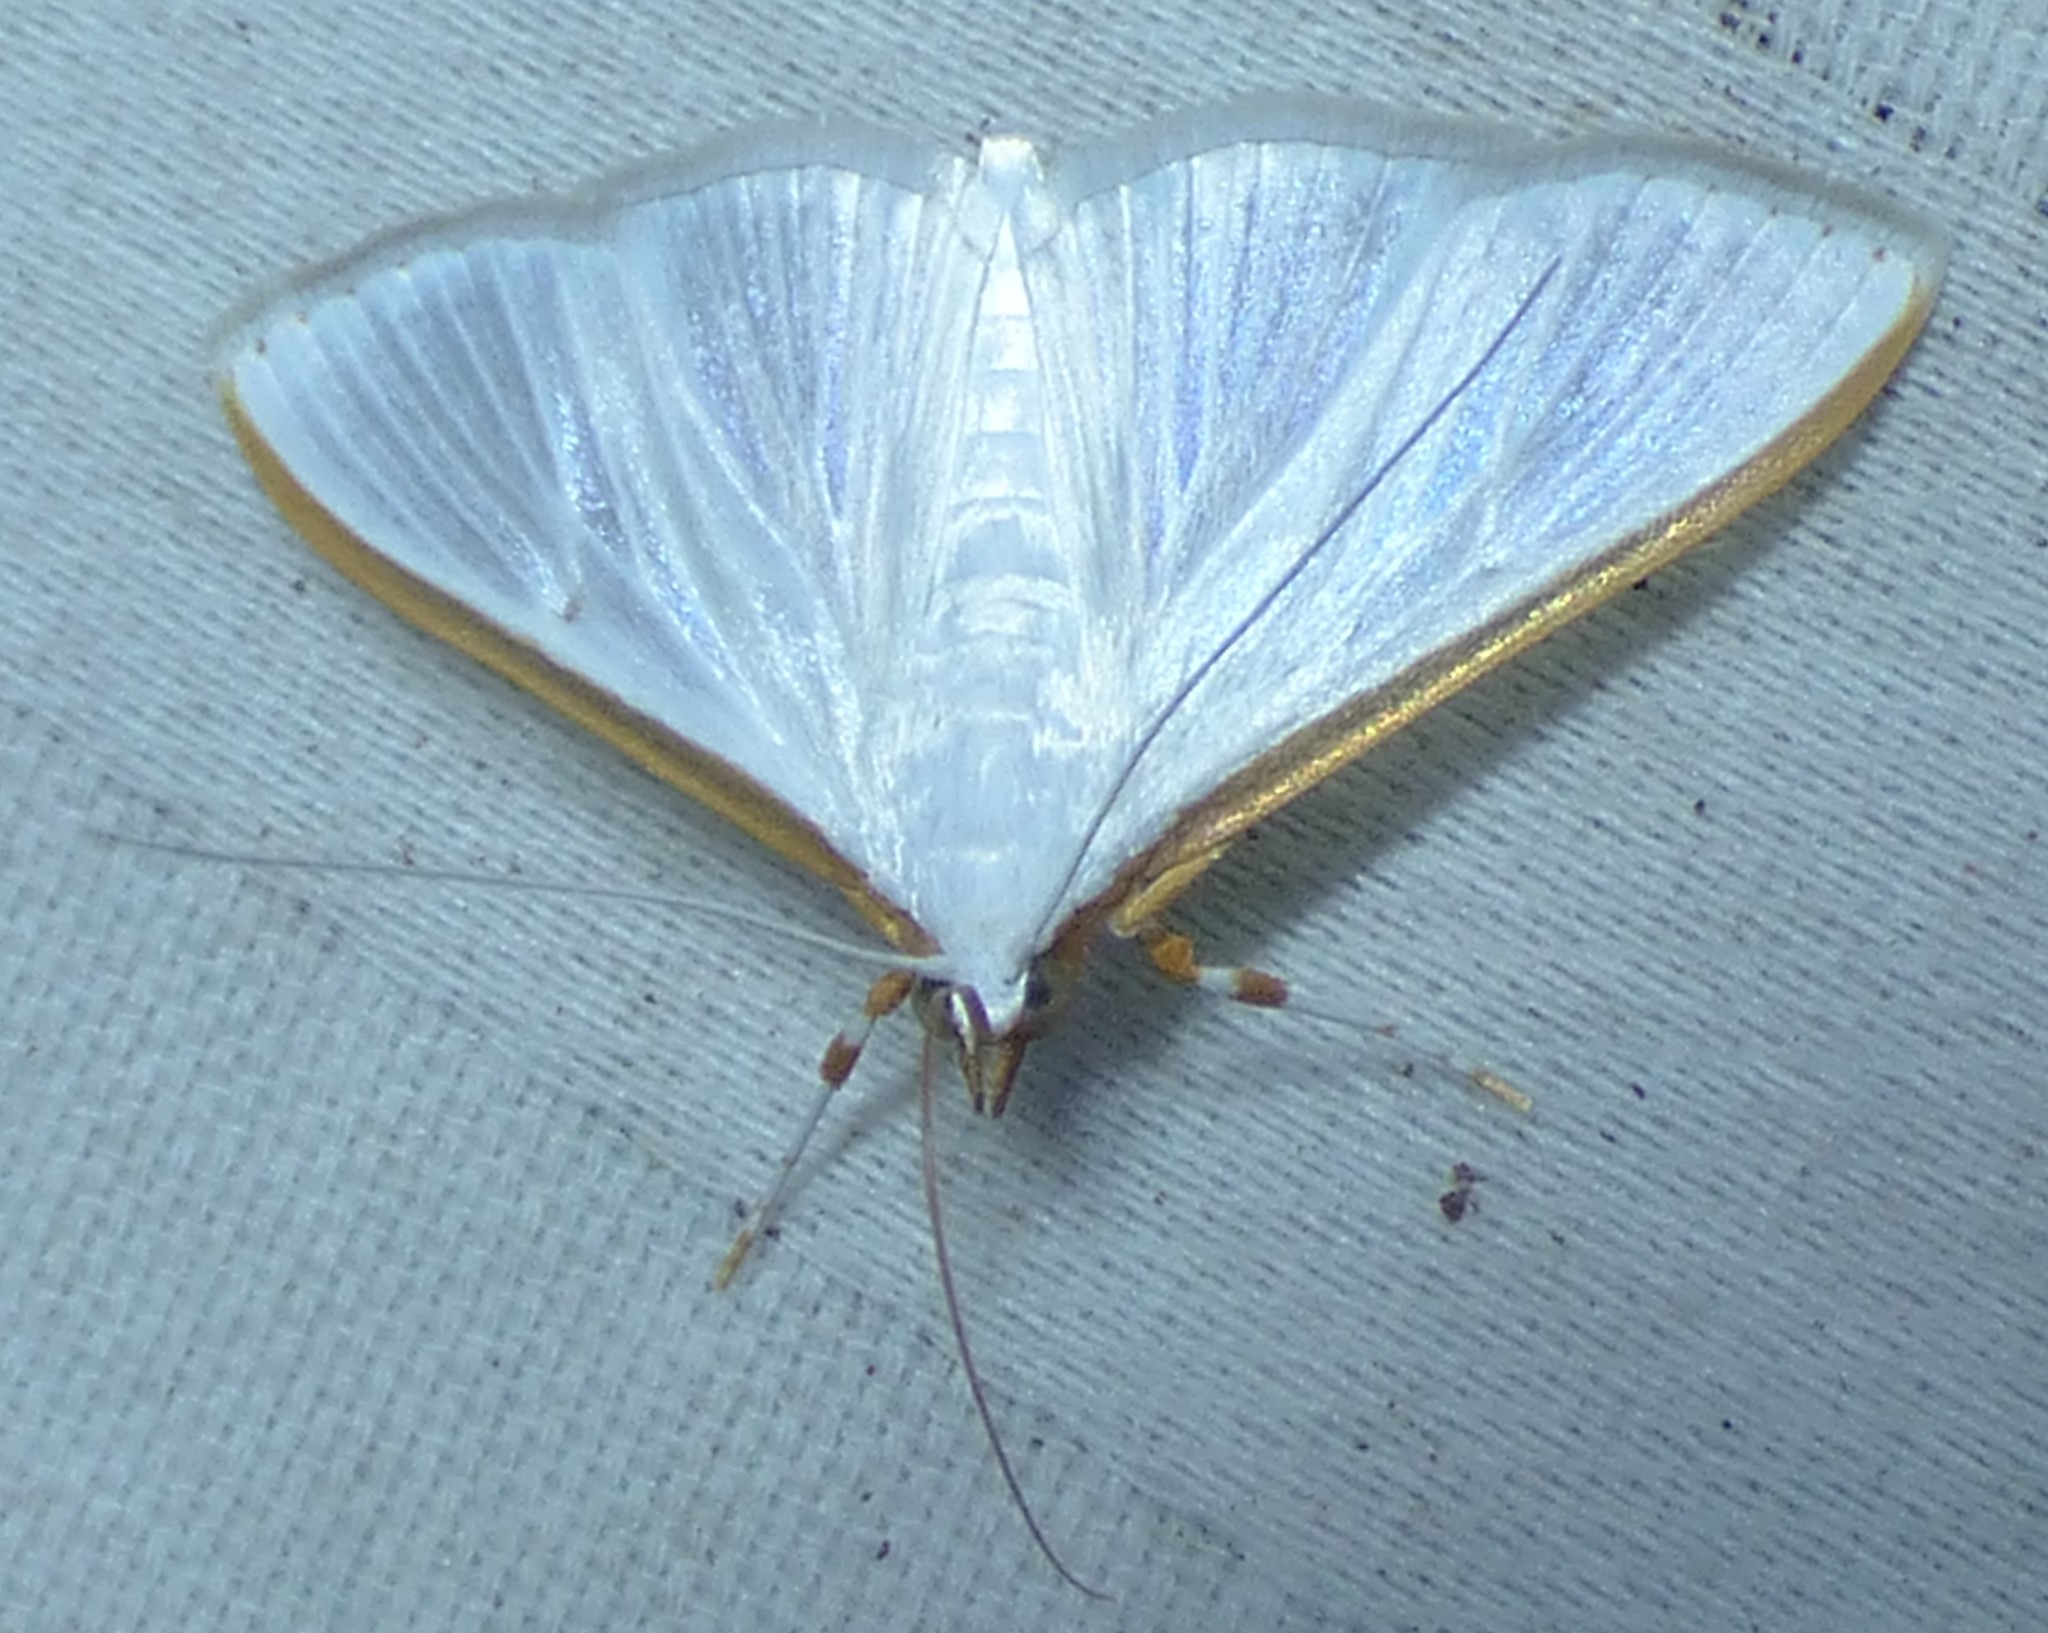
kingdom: Animalia
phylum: Arthropoda
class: Insecta
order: Lepidoptera
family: Crambidae
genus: Diaphania
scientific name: Diaphania costata
